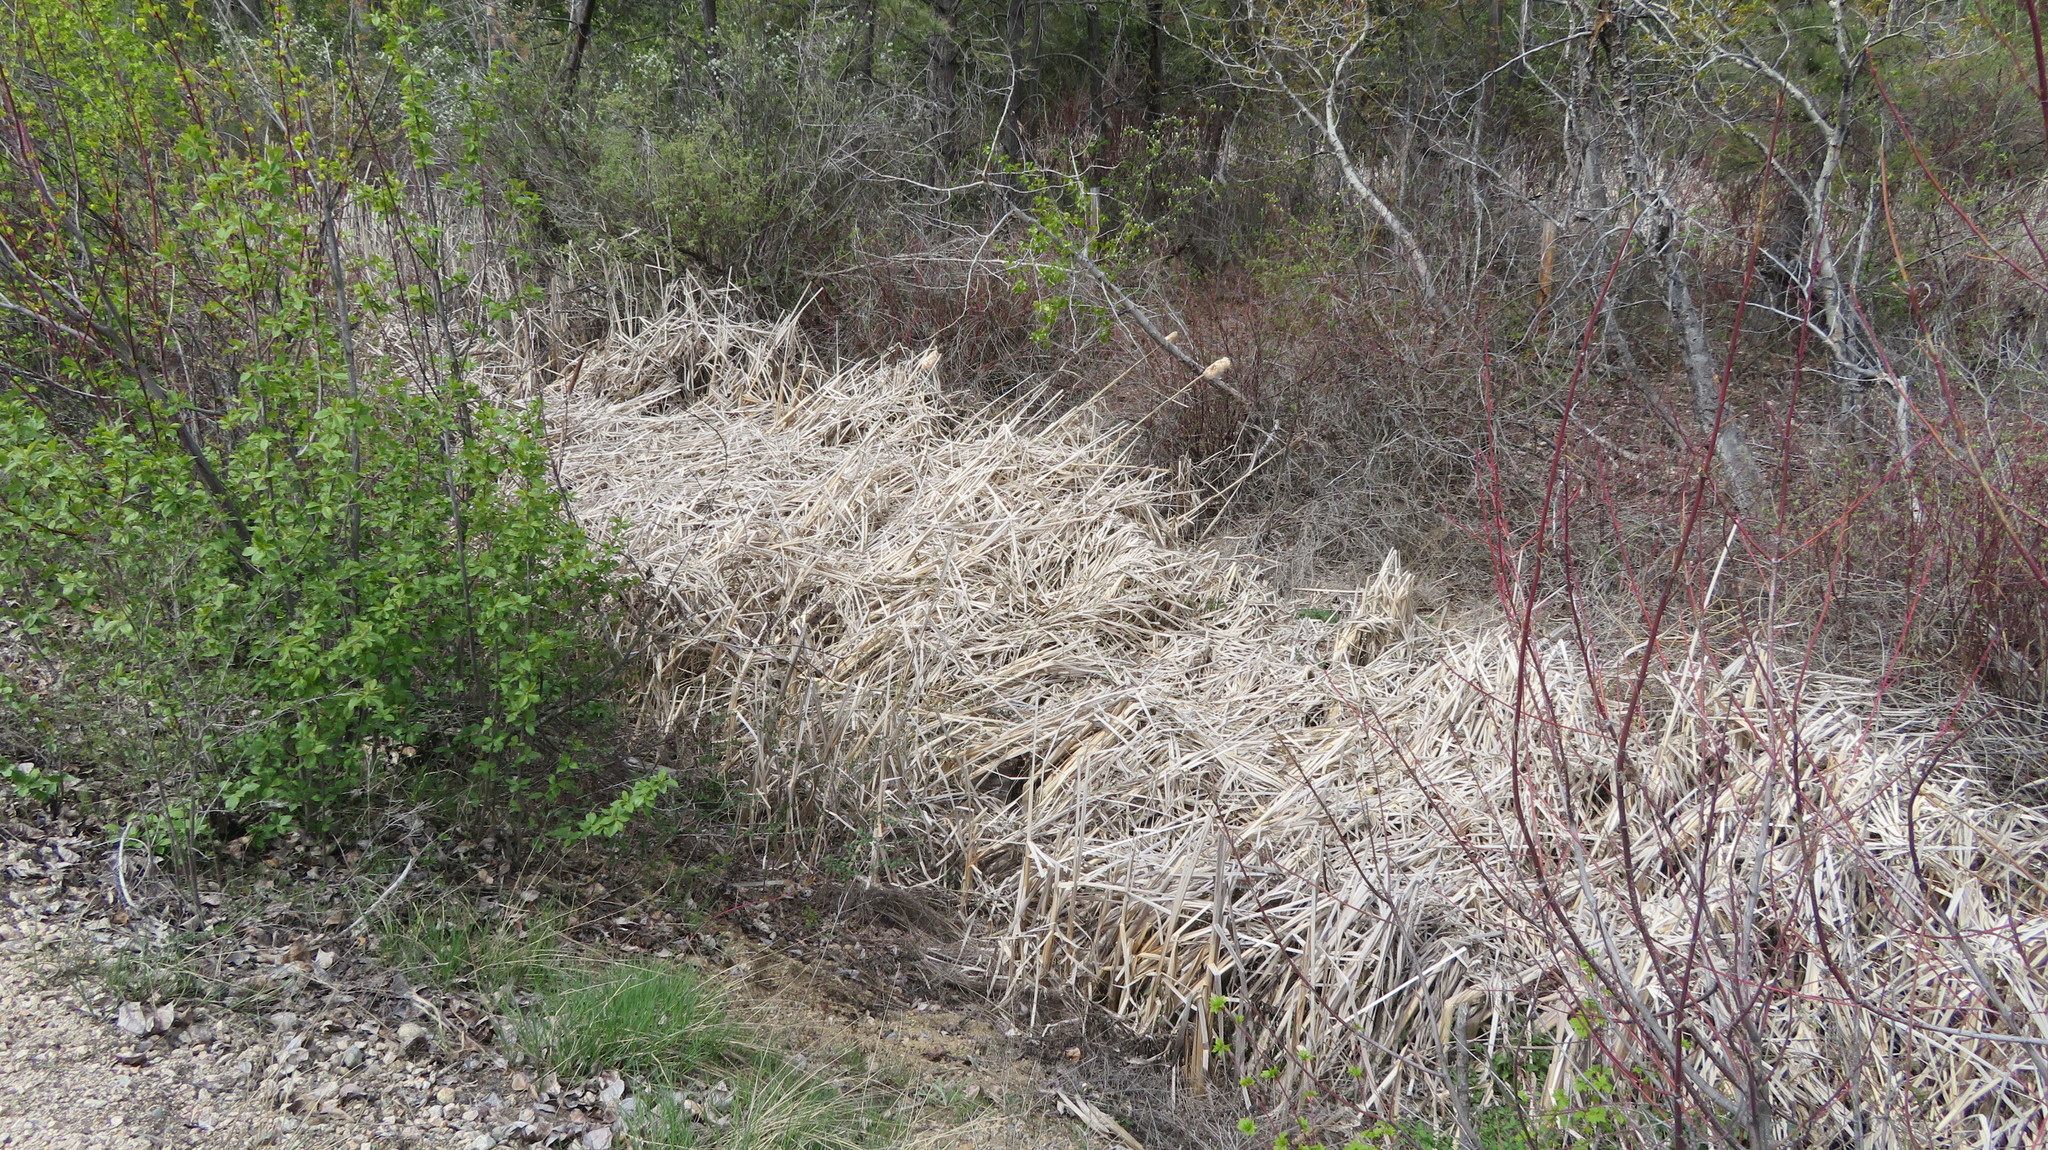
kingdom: Plantae
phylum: Tracheophyta
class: Liliopsida
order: Poales
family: Typhaceae
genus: Typha
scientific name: Typha latifolia
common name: Broadleaf cattail
